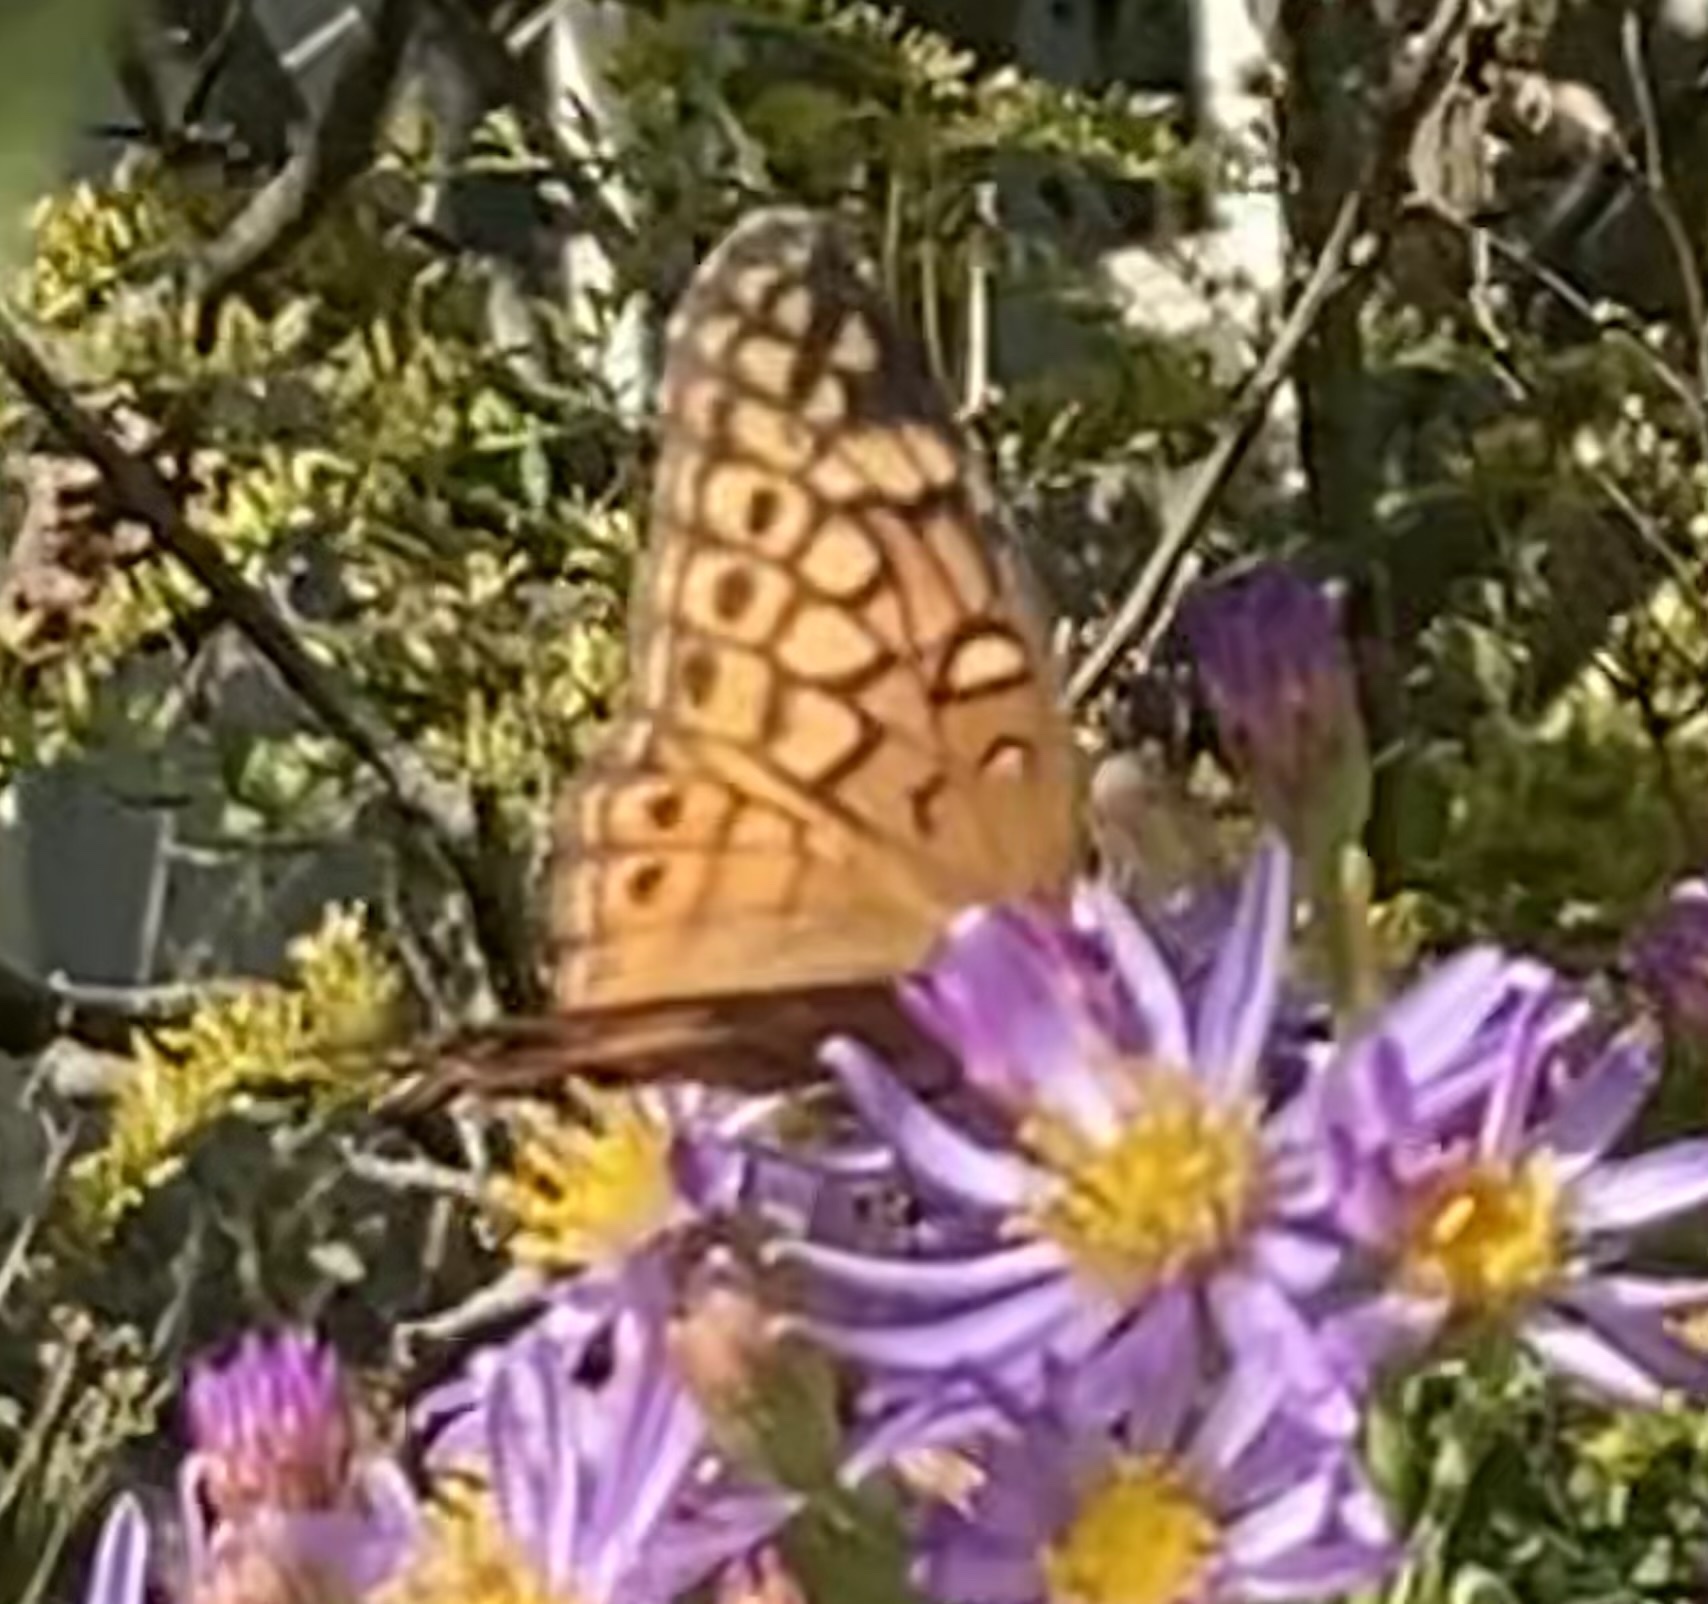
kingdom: Animalia
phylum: Arthropoda
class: Insecta
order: Lepidoptera
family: Nymphalidae
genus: Euptoieta
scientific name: Euptoieta claudia
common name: Variegated fritillary
